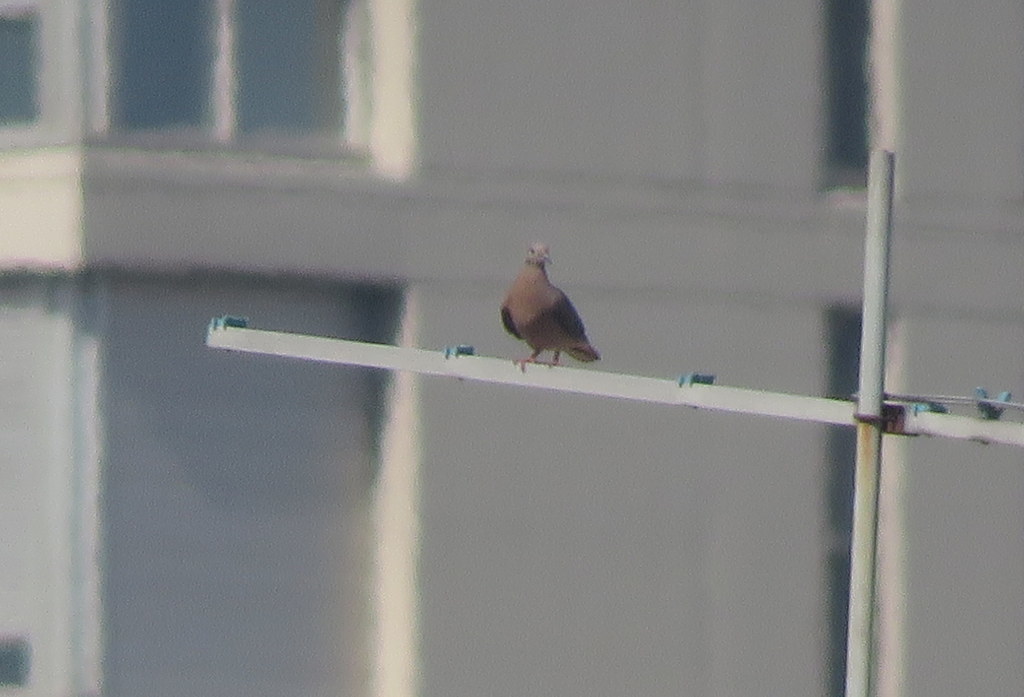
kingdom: Animalia
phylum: Chordata
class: Aves
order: Columbiformes
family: Columbidae
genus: Zenaida
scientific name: Zenaida auriculata
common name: Eared dove
